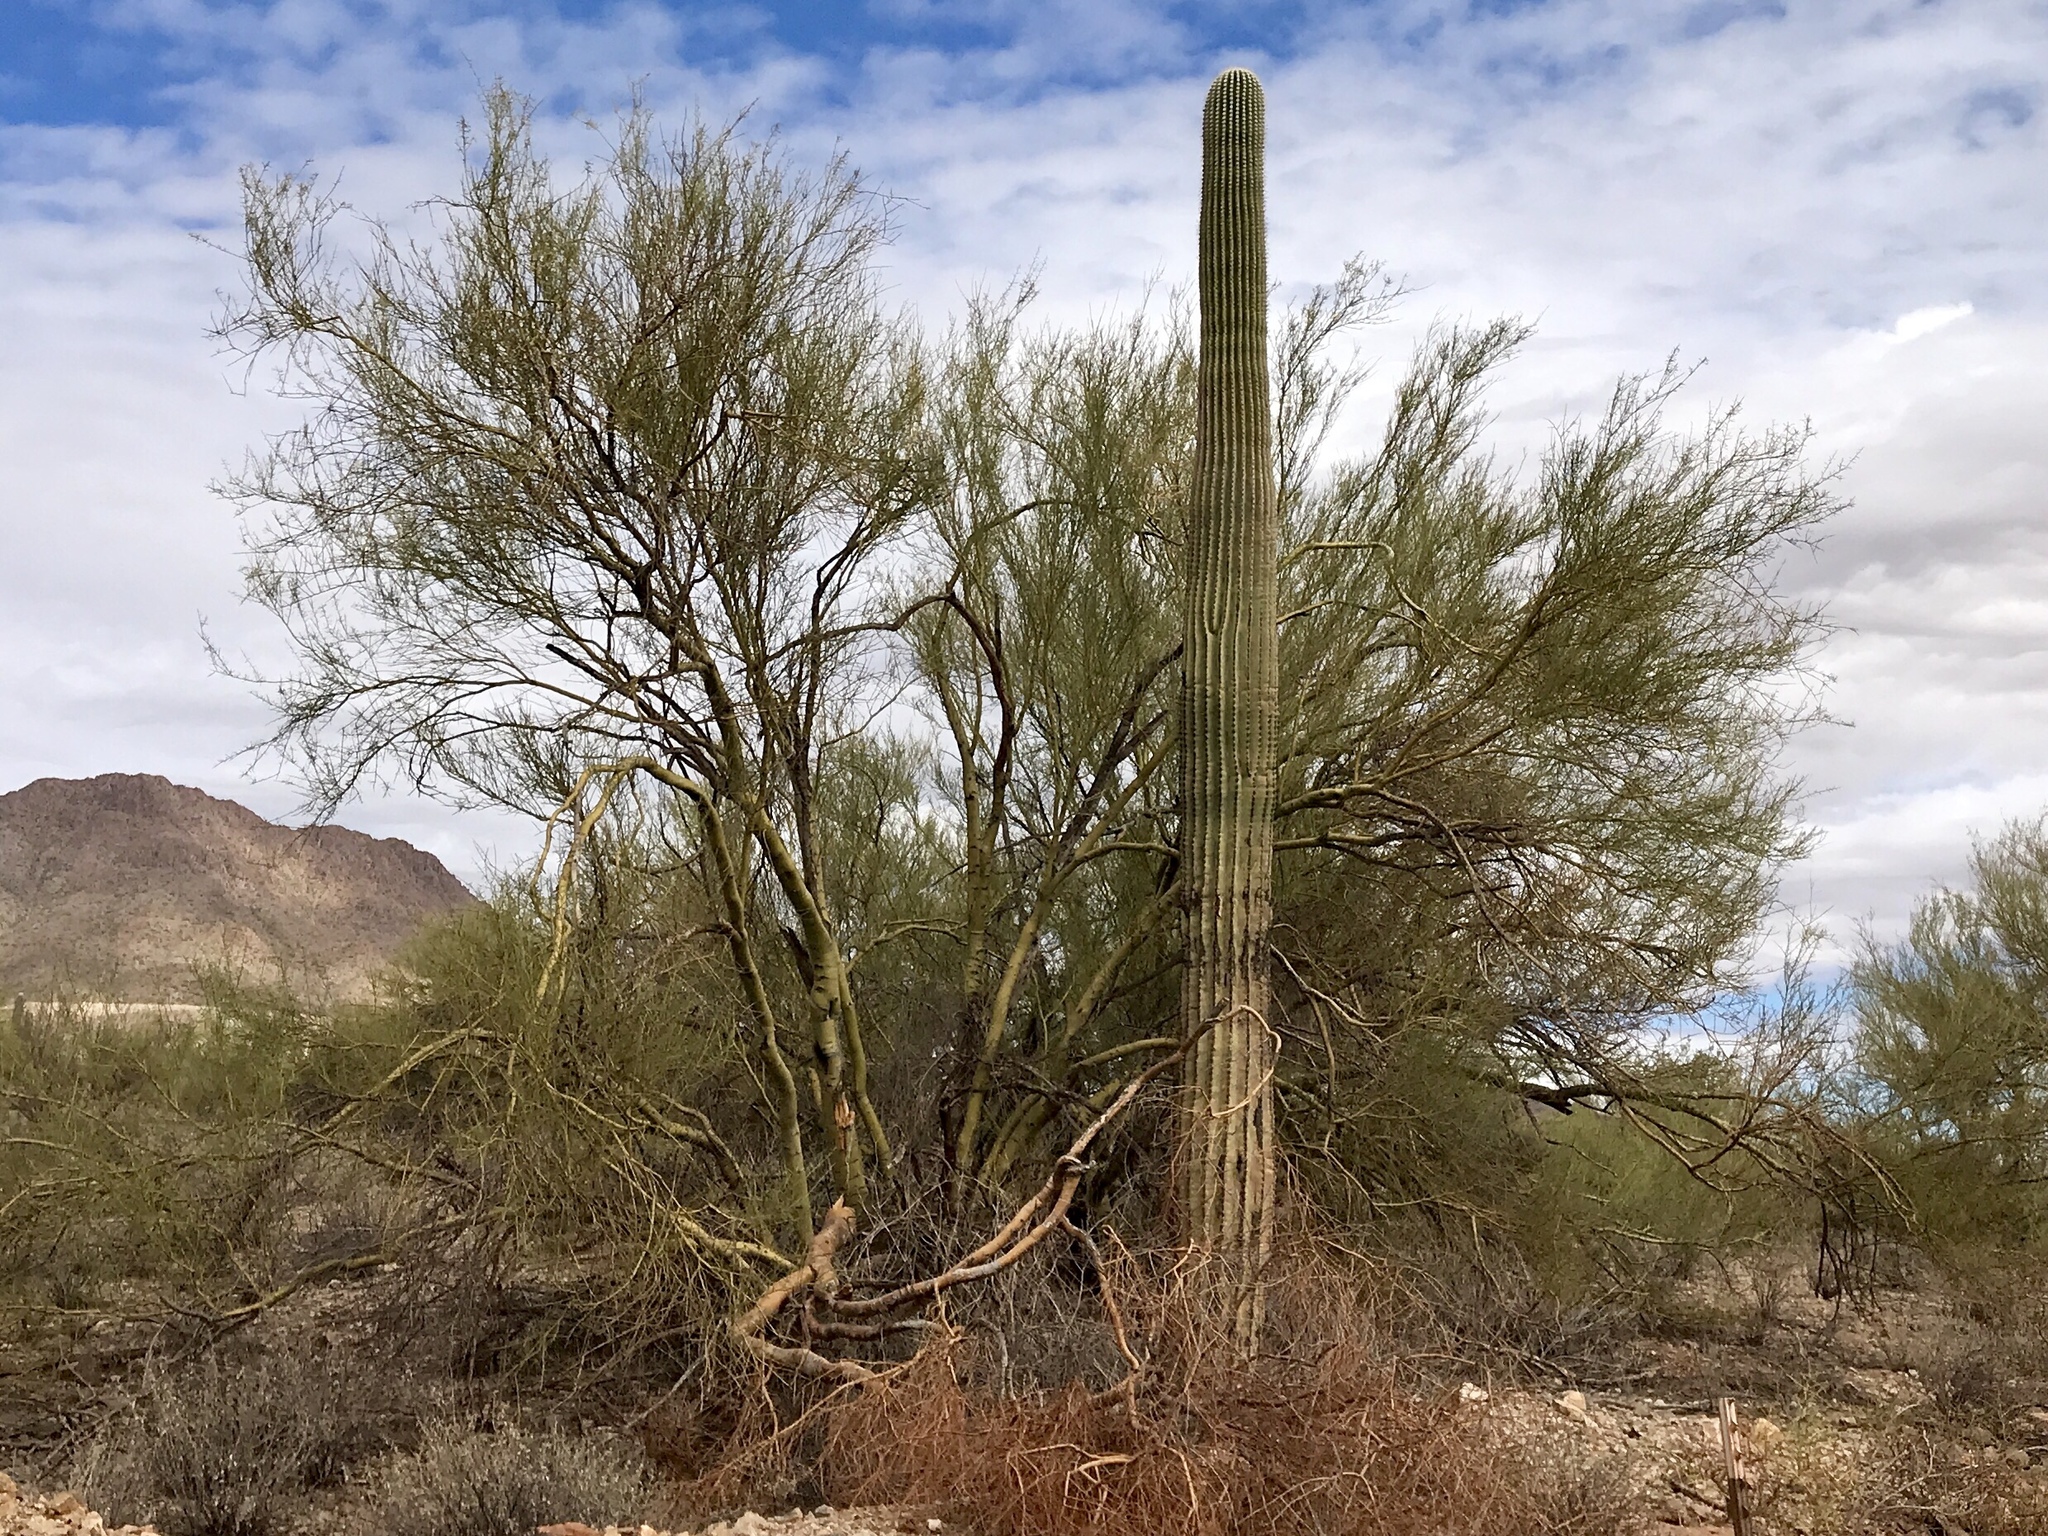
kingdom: Plantae
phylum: Tracheophyta
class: Magnoliopsida
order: Fabales
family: Fabaceae
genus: Parkinsonia
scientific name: Parkinsonia microphylla
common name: Yellow paloverde
